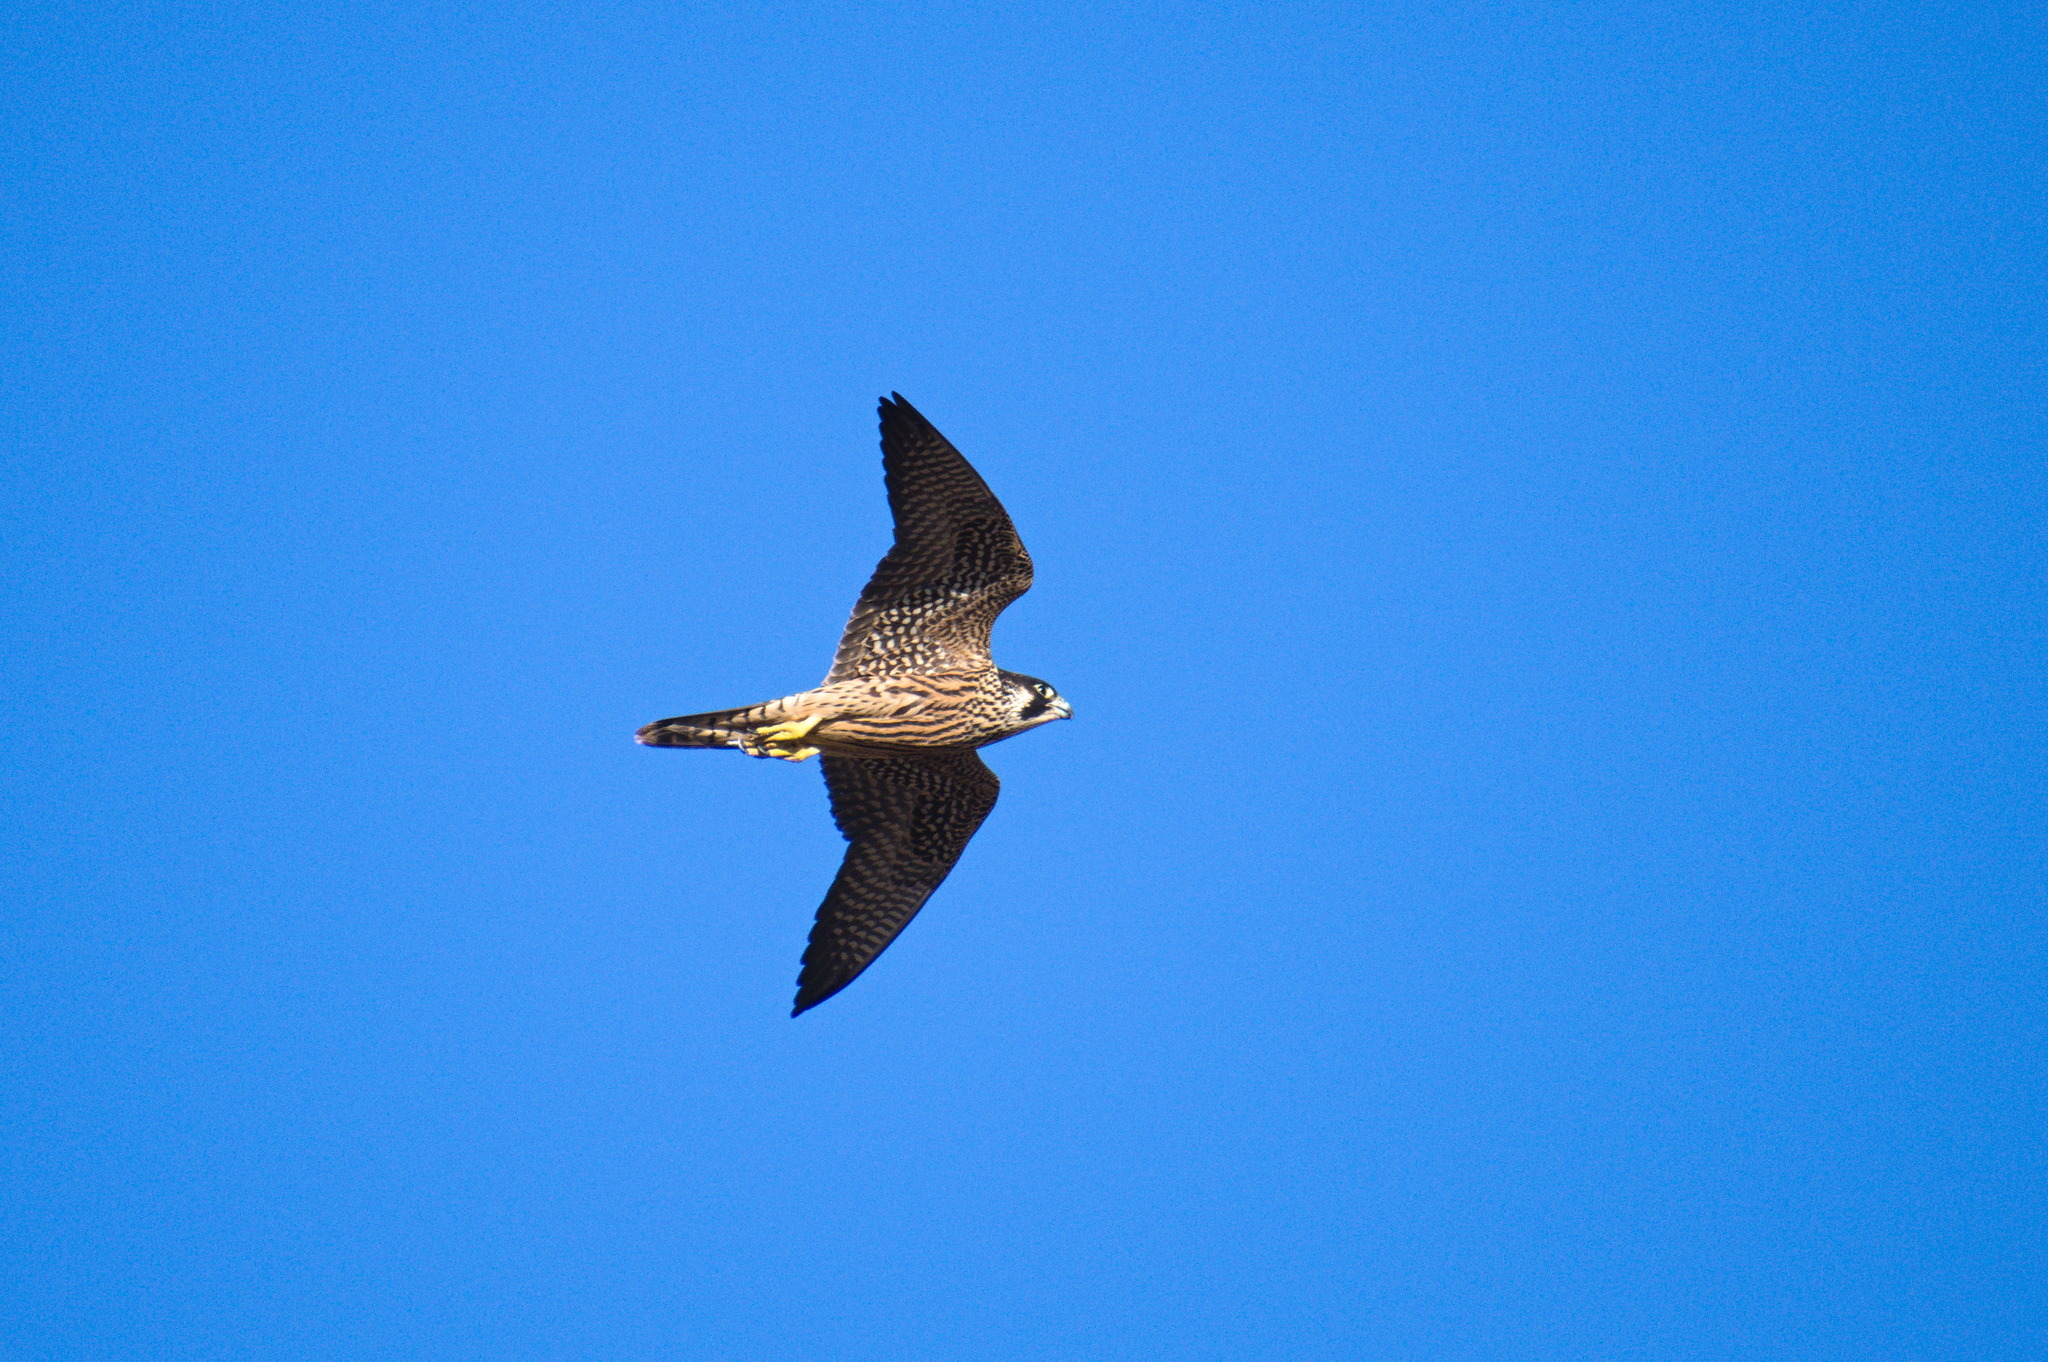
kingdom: Animalia
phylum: Chordata
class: Aves
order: Falconiformes
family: Falconidae
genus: Falco
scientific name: Falco peregrinus
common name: Peregrine falcon
